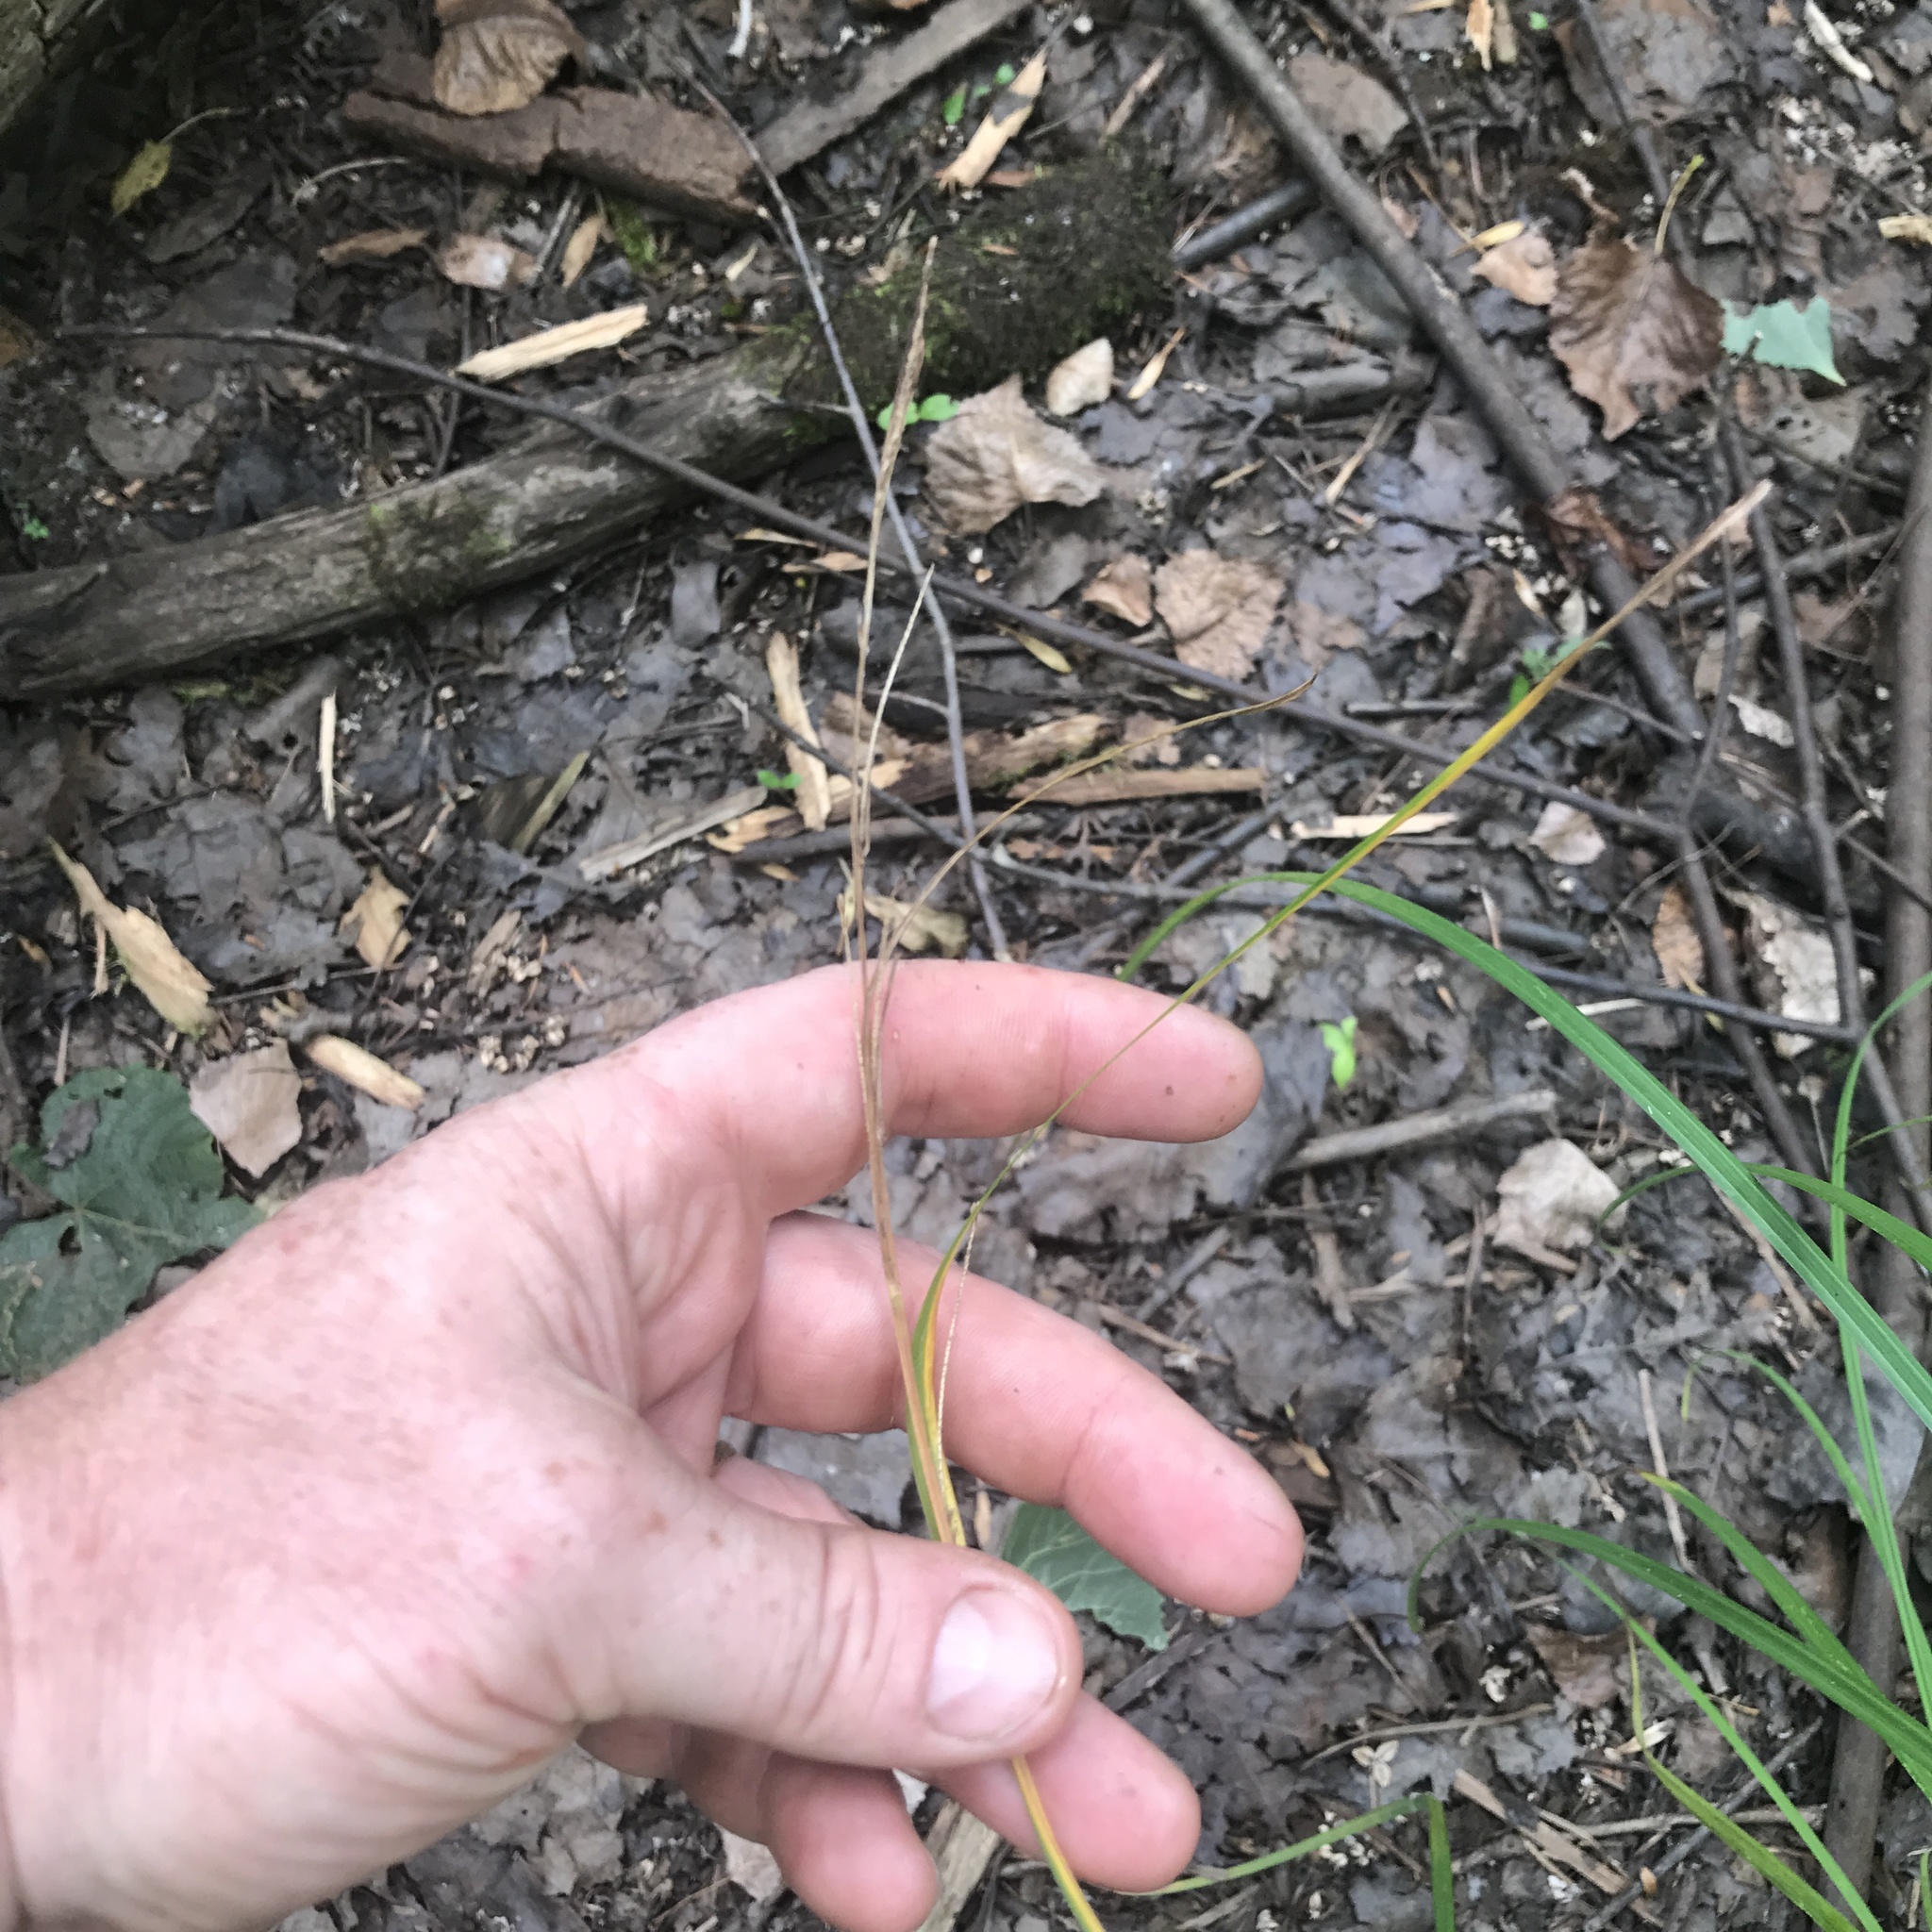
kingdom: Plantae
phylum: Tracheophyta
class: Liliopsida
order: Poales
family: Cyperaceae
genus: Carex
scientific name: Carex stricta
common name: Hummock sedge
